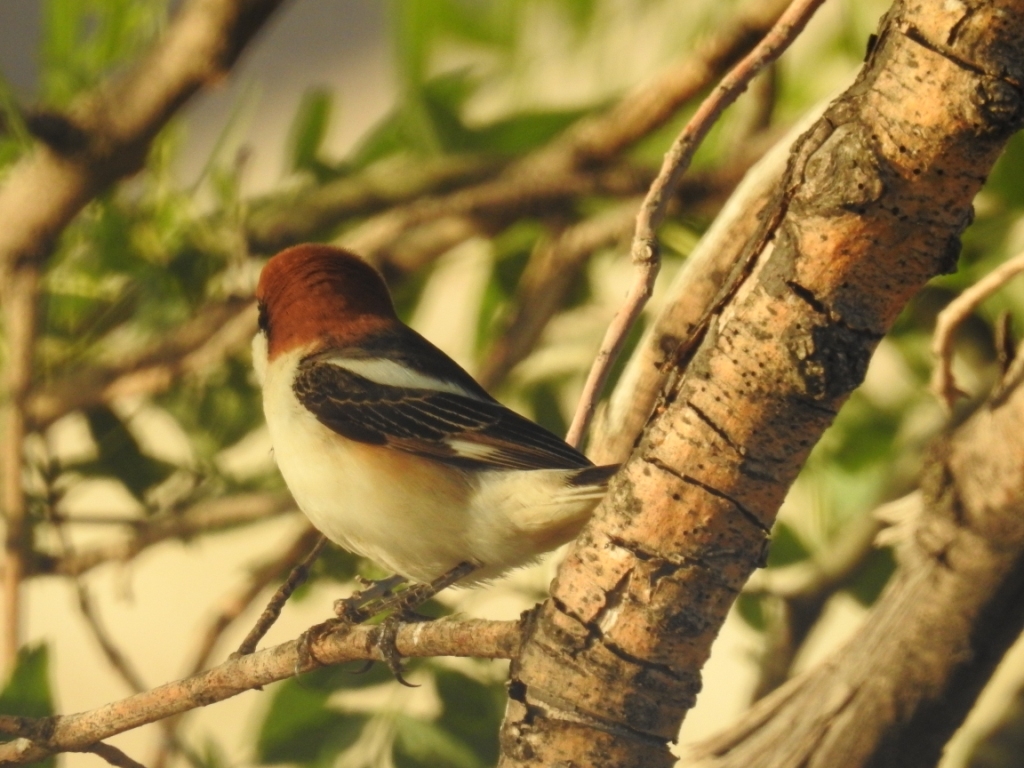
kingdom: Animalia
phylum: Chordata
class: Aves
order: Passeriformes
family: Laniidae
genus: Lanius
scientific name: Lanius senator
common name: Woodchat shrike
